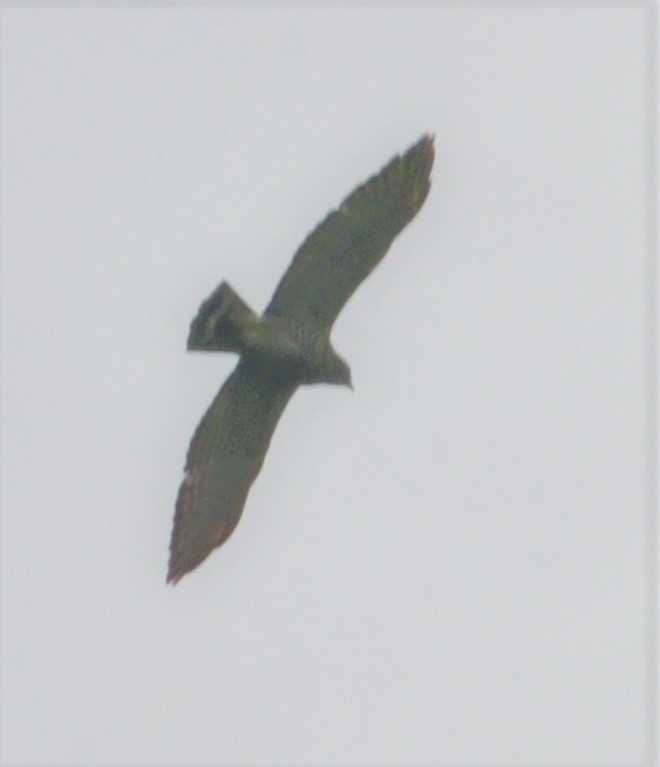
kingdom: Animalia
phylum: Chordata
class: Aves
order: Accipitriformes
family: Accipitridae
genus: Buteo
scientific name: Buteo platypterus
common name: Broad-winged hawk
